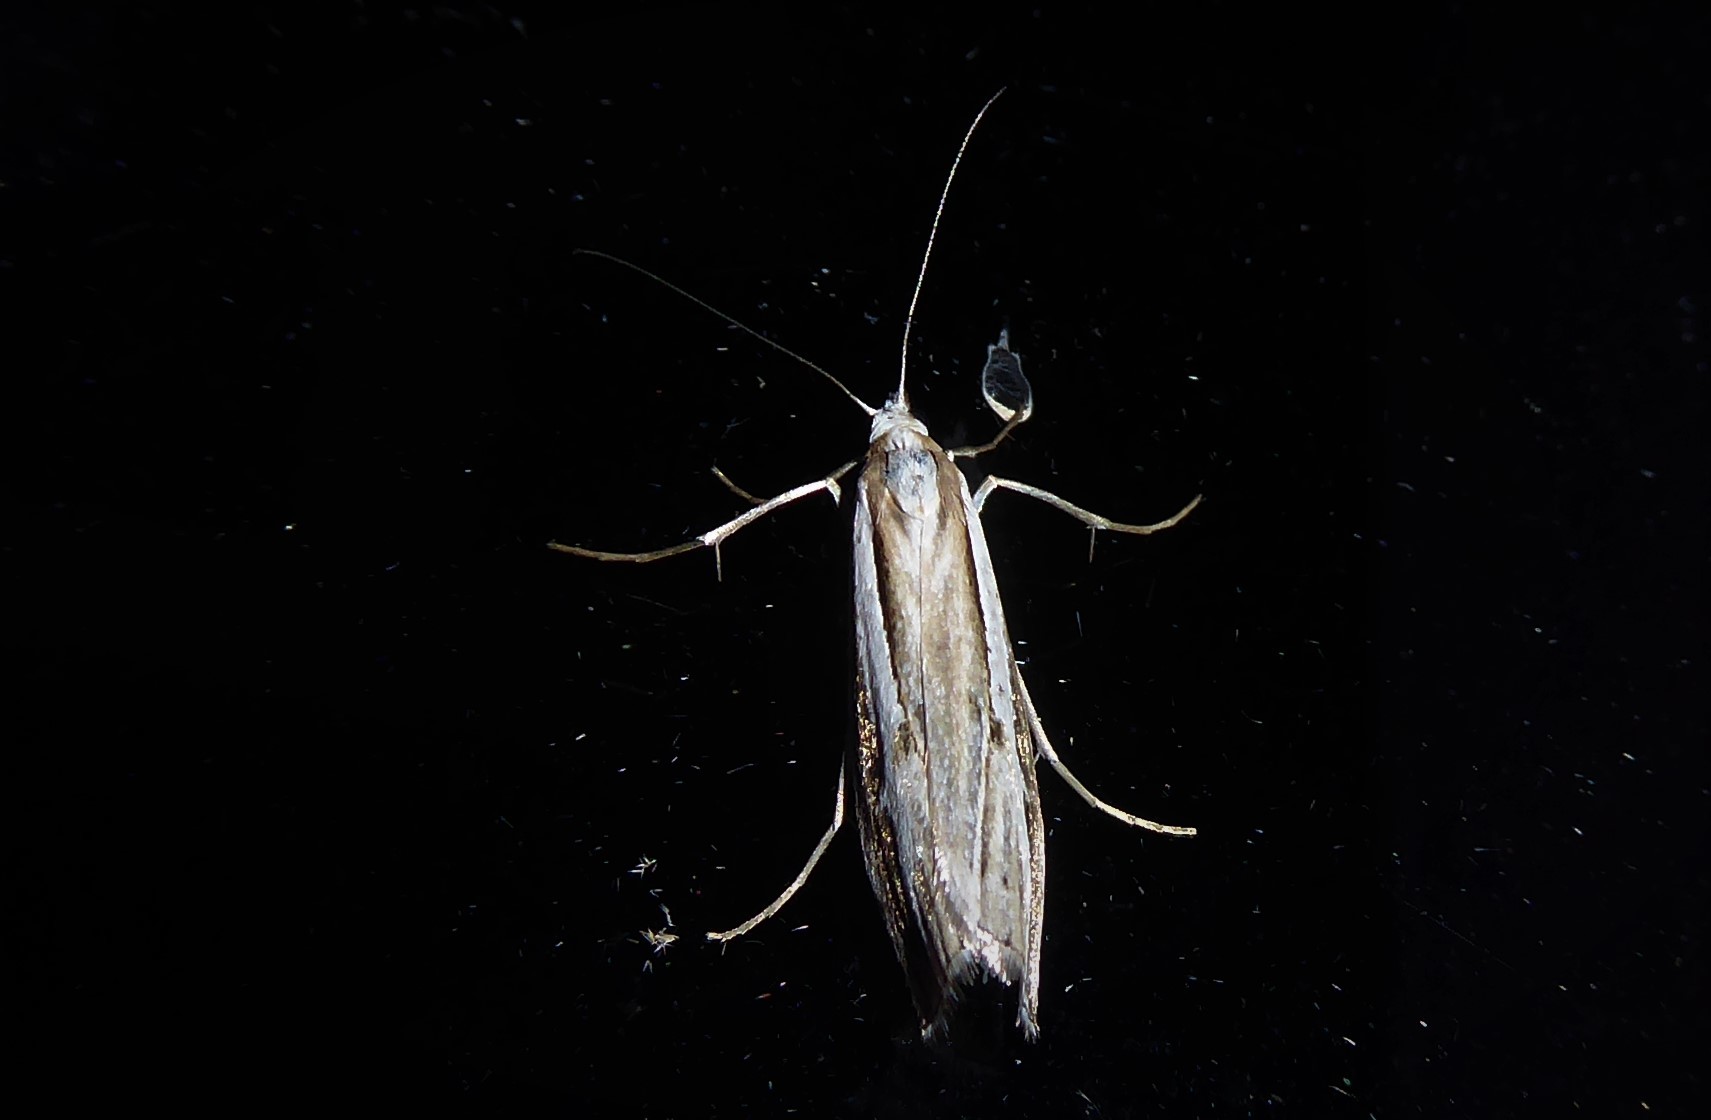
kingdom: Animalia
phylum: Arthropoda
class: Insecta
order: Lepidoptera
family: Crambidae
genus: Orocrambus
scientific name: Orocrambus vittellus
